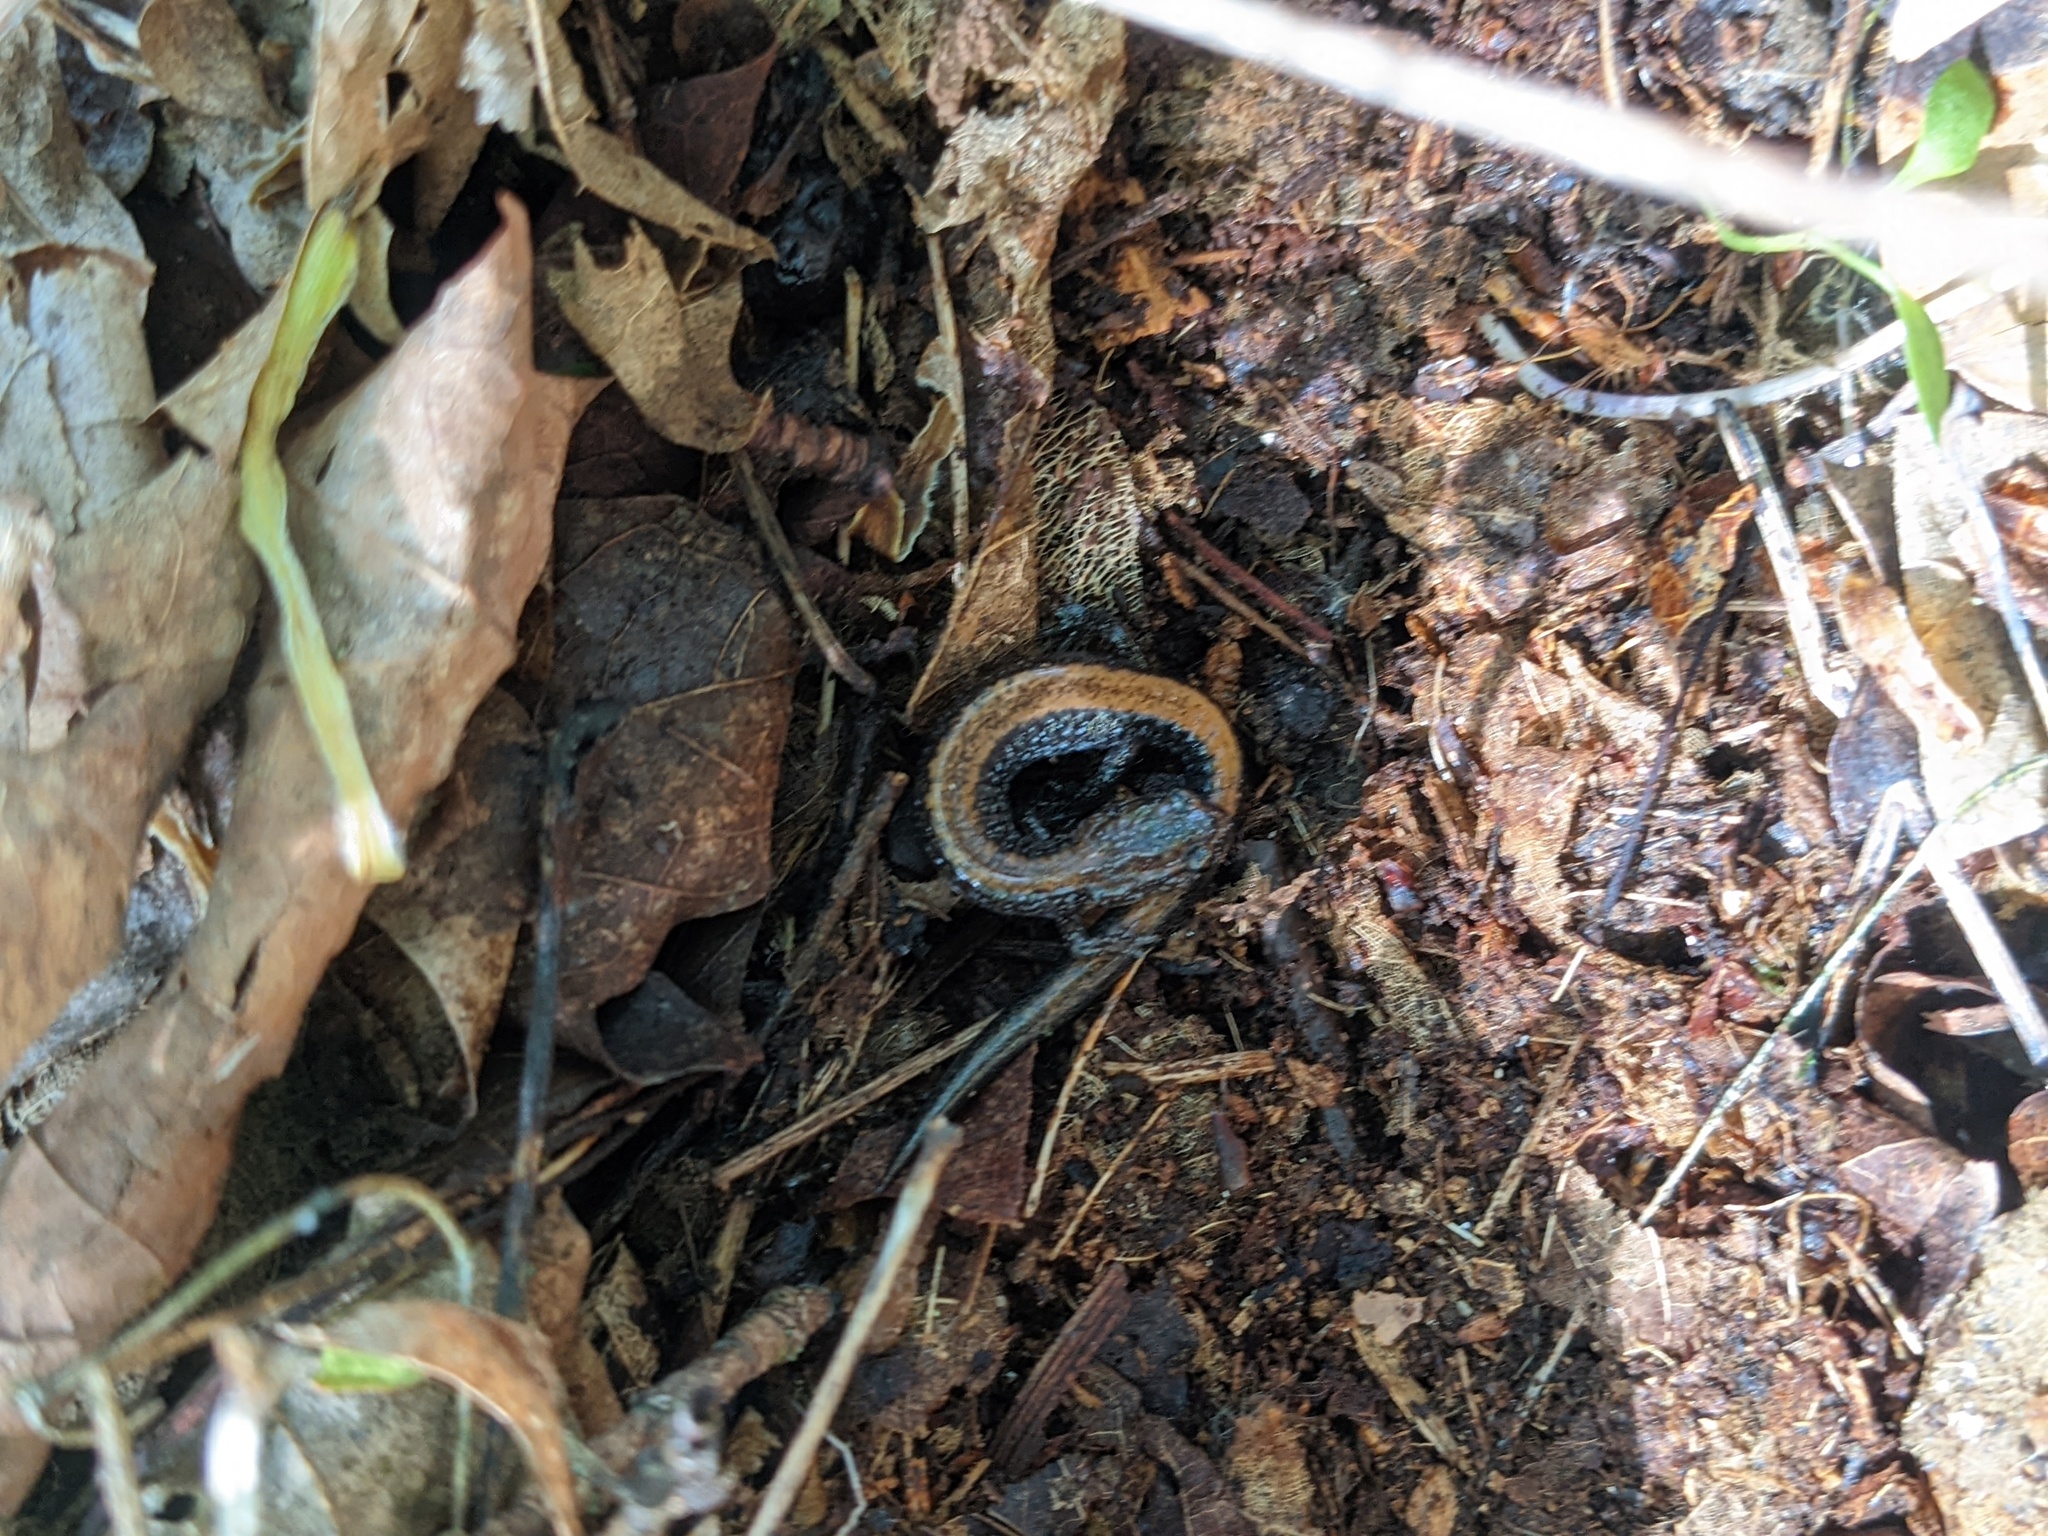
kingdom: Animalia
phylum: Chordata
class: Amphibia
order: Caudata
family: Plethodontidae
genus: Plethodon
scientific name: Plethodon cinereus
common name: Redback salamander
